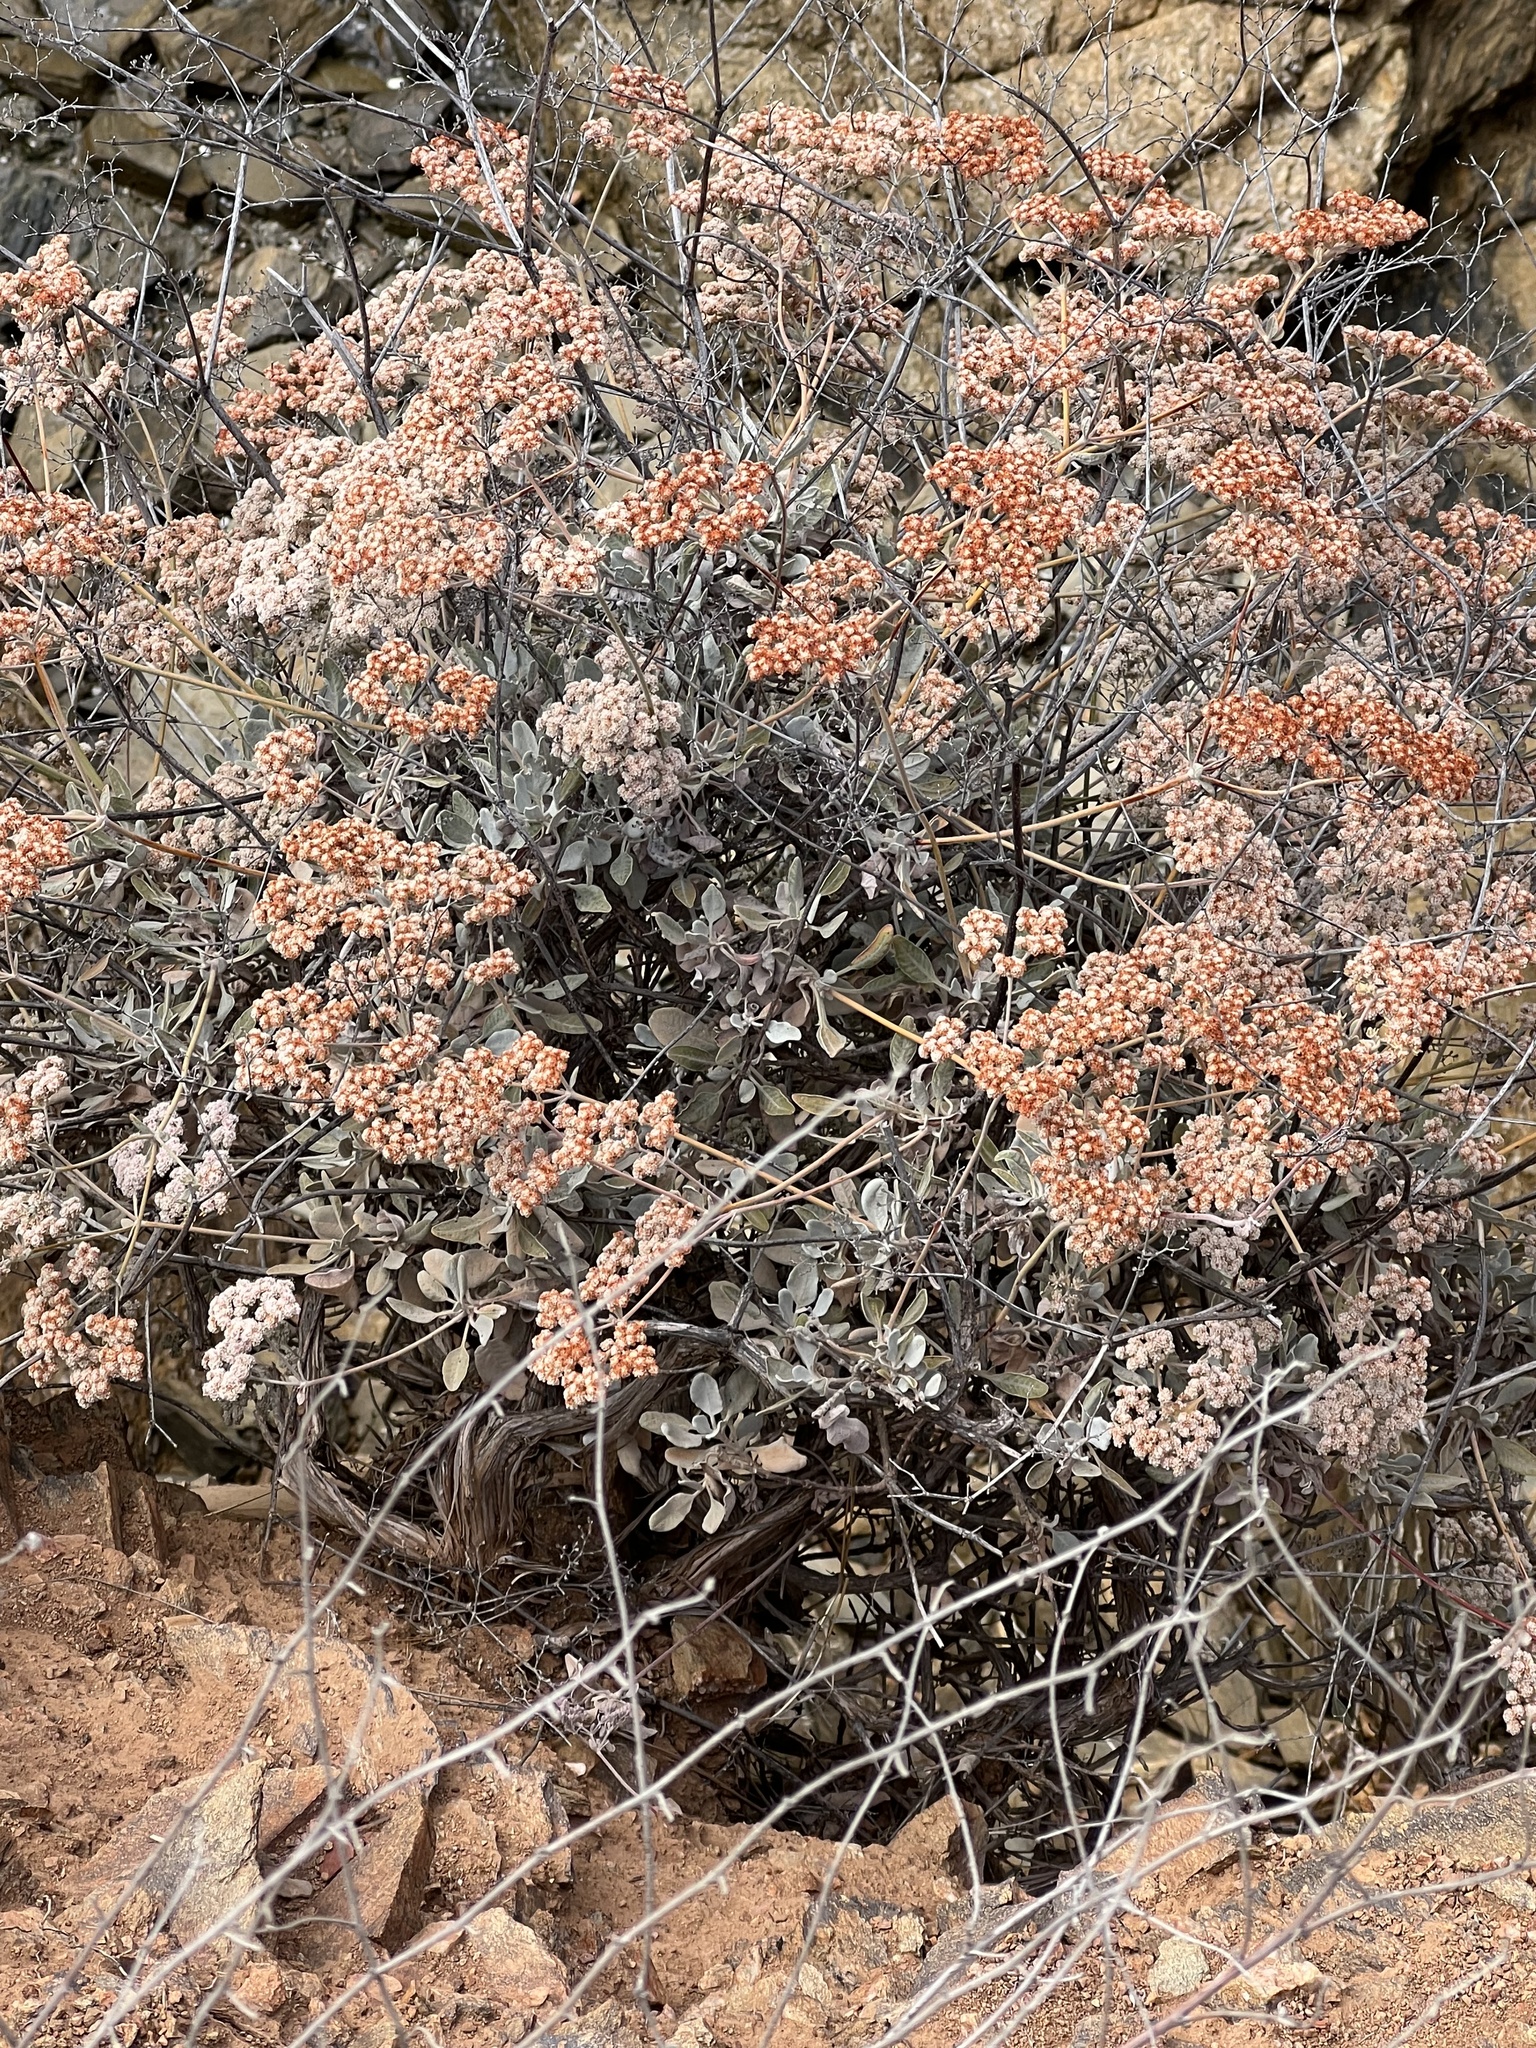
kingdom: Plantae
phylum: Tracheophyta
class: Magnoliopsida
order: Caryophyllales
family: Polygonaceae
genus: Eriogonum
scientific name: Eriogonum giganteum
